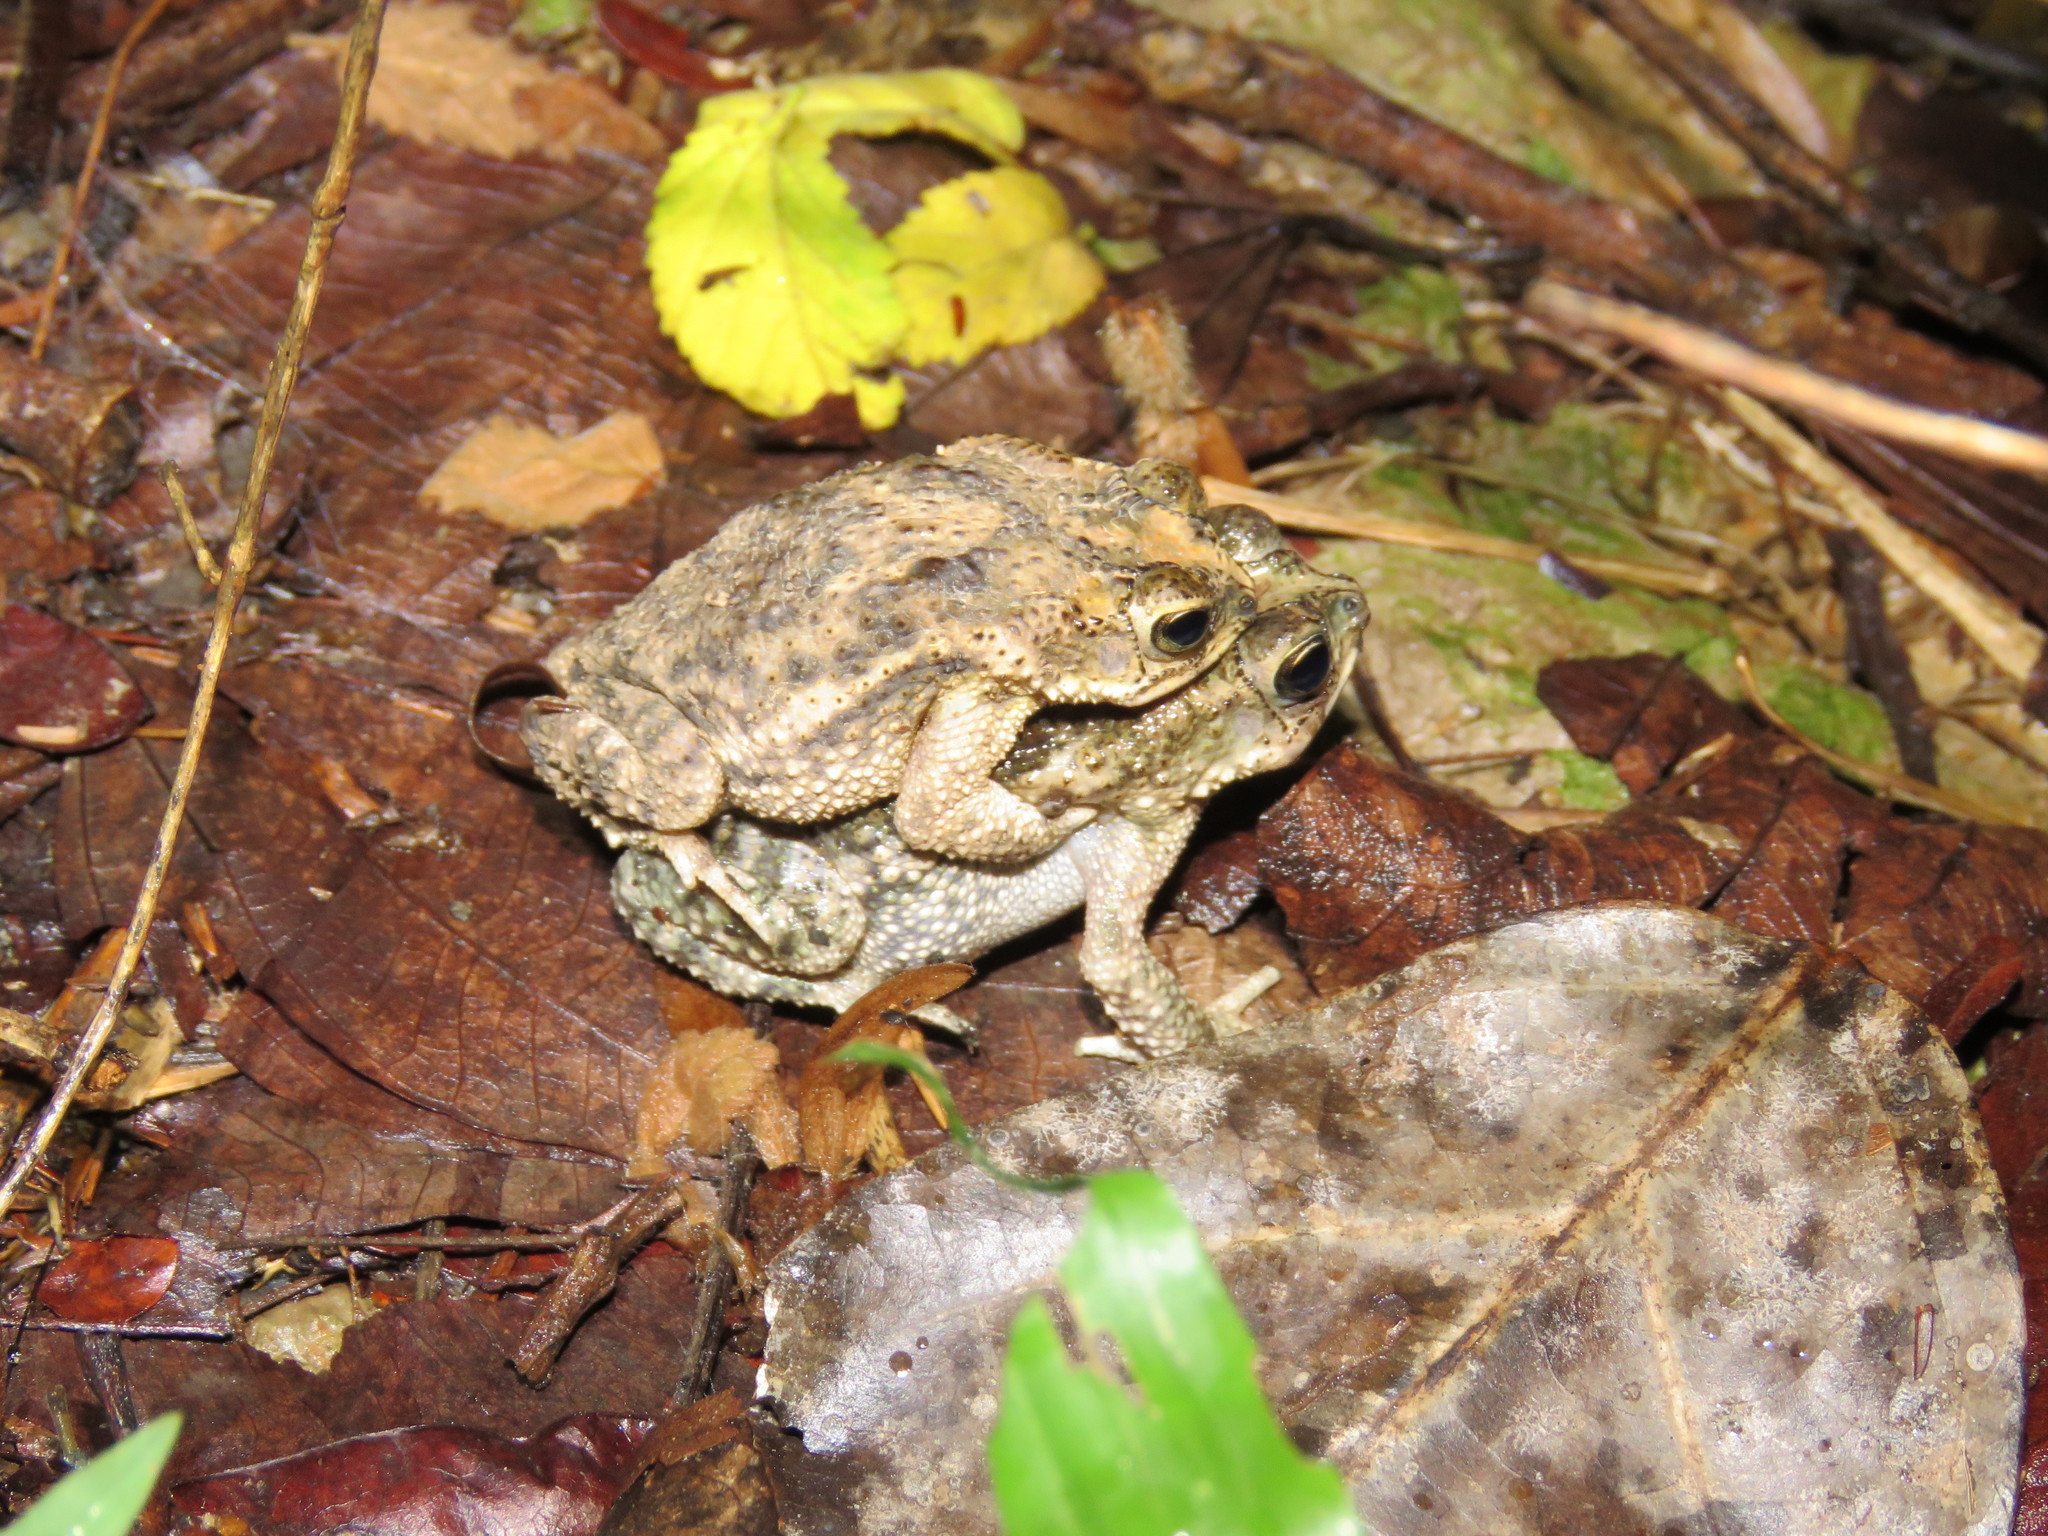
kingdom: Animalia
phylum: Chordata
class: Amphibia
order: Anura
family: Bufonidae
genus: Rhinella
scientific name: Rhinella major
